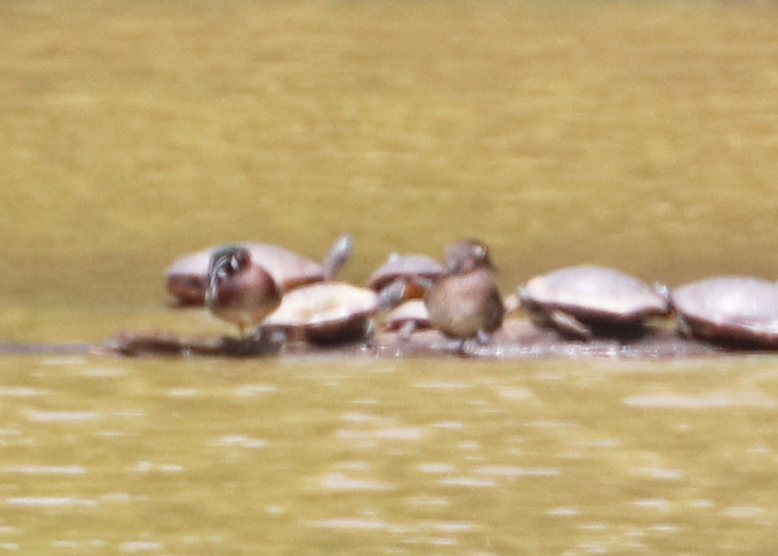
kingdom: Animalia
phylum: Chordata
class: Aves
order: Anseriformes
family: Anatidae
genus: Aix
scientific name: Aix sponsa
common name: Wood duck
